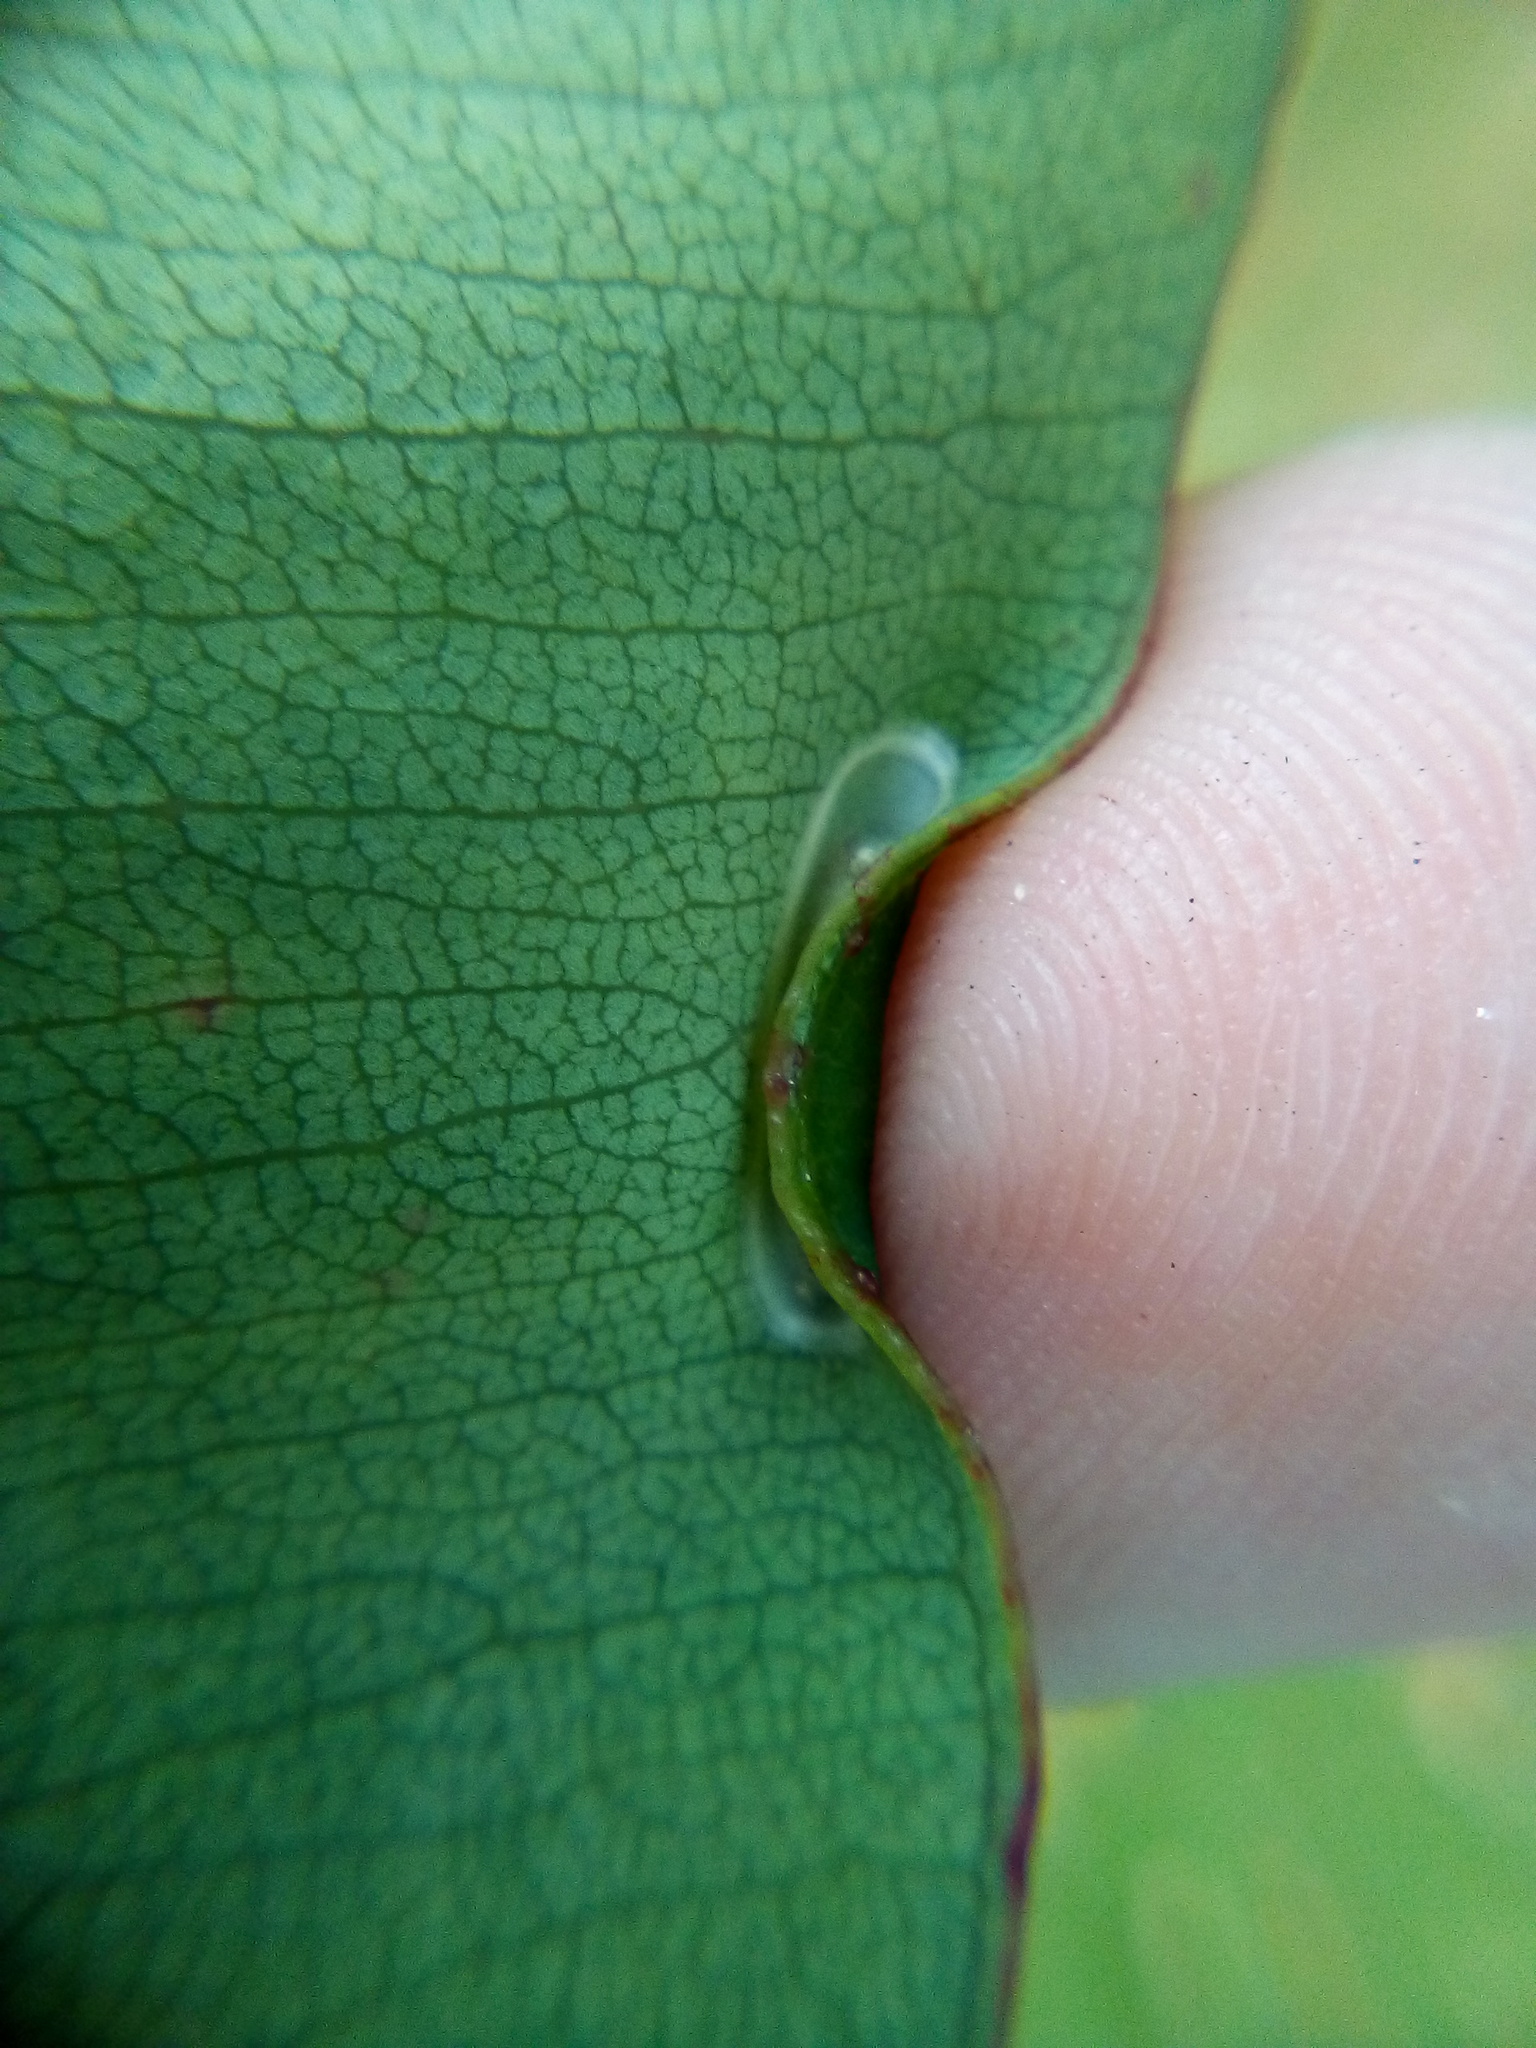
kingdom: Animalia
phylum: Arthropoda
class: Insecta
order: Lepidoptera
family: Gracillariidae
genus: Macarostola
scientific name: Macarostola ida
